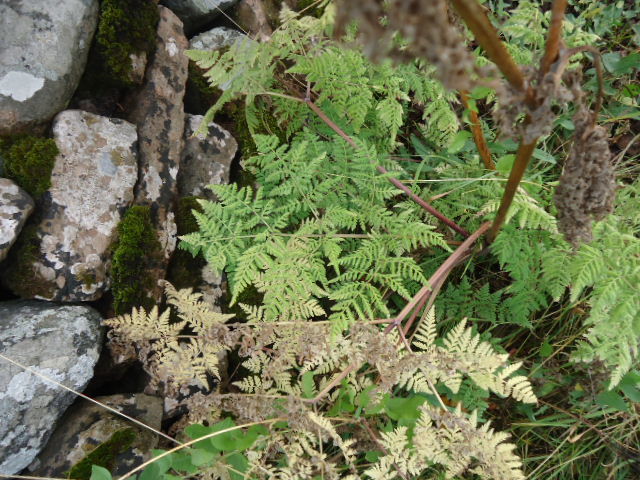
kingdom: Plantae
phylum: Tracheophyta
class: Magnoliopsida
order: Apiales
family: Apiaceae
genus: Myrrhis
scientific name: Myrrhis odorata
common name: Sweet cicely
